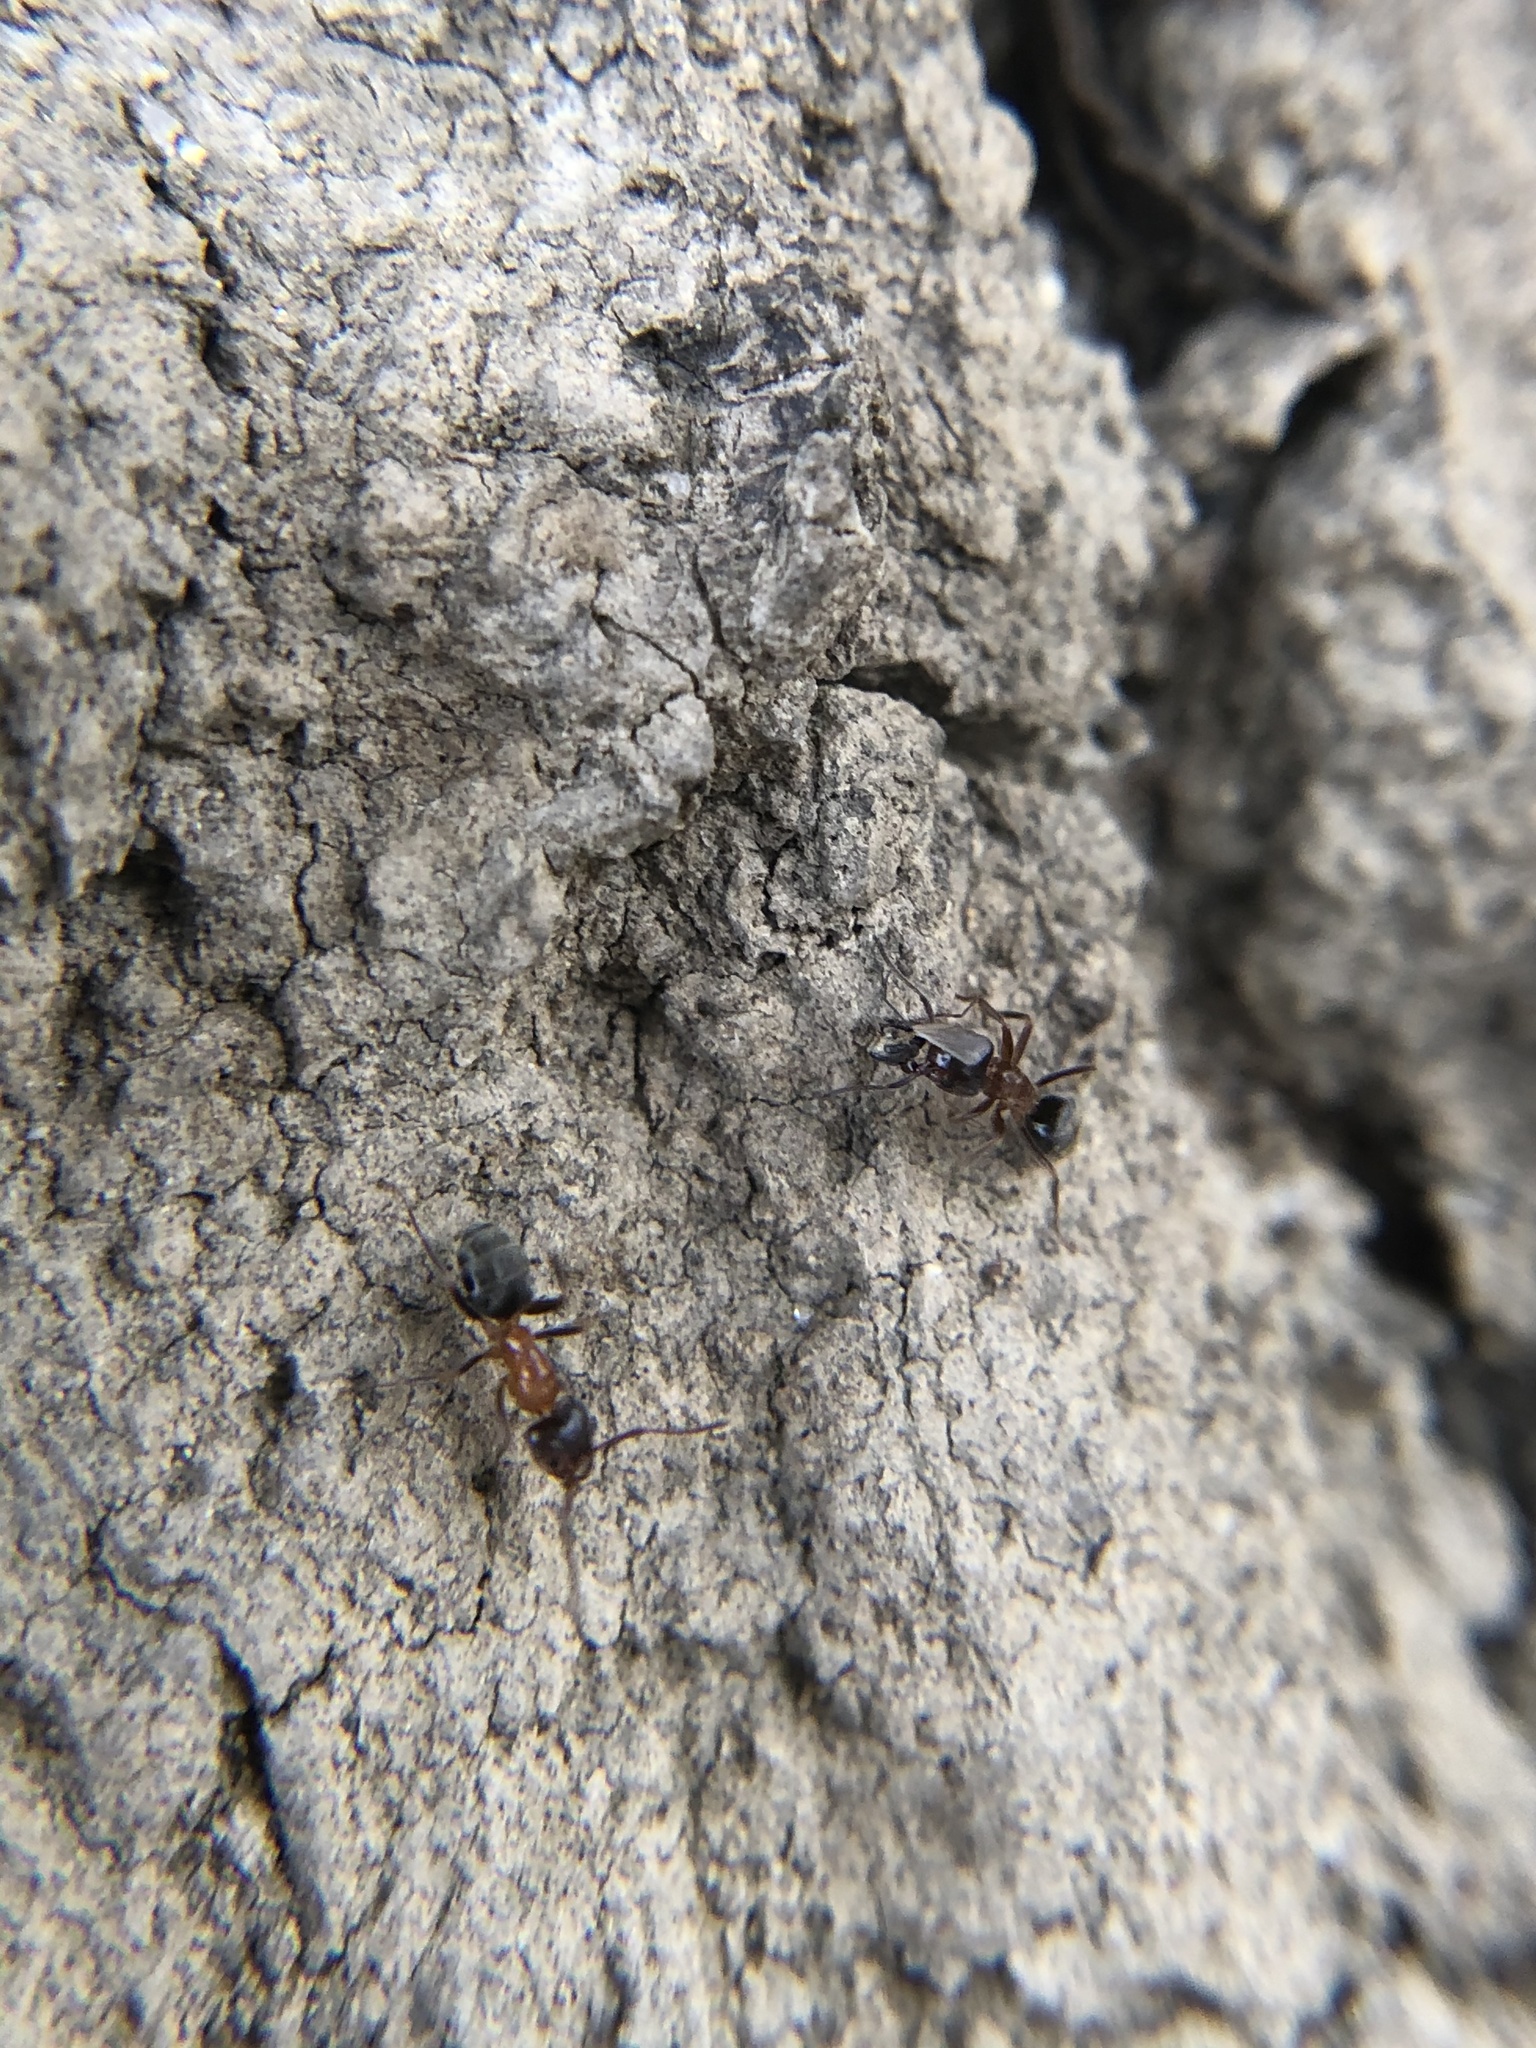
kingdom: Animalia
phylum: Arthropoda
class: Insecta
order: Hymenoptera
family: Formicidae
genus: Liometopum
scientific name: Liometopum occidentale
